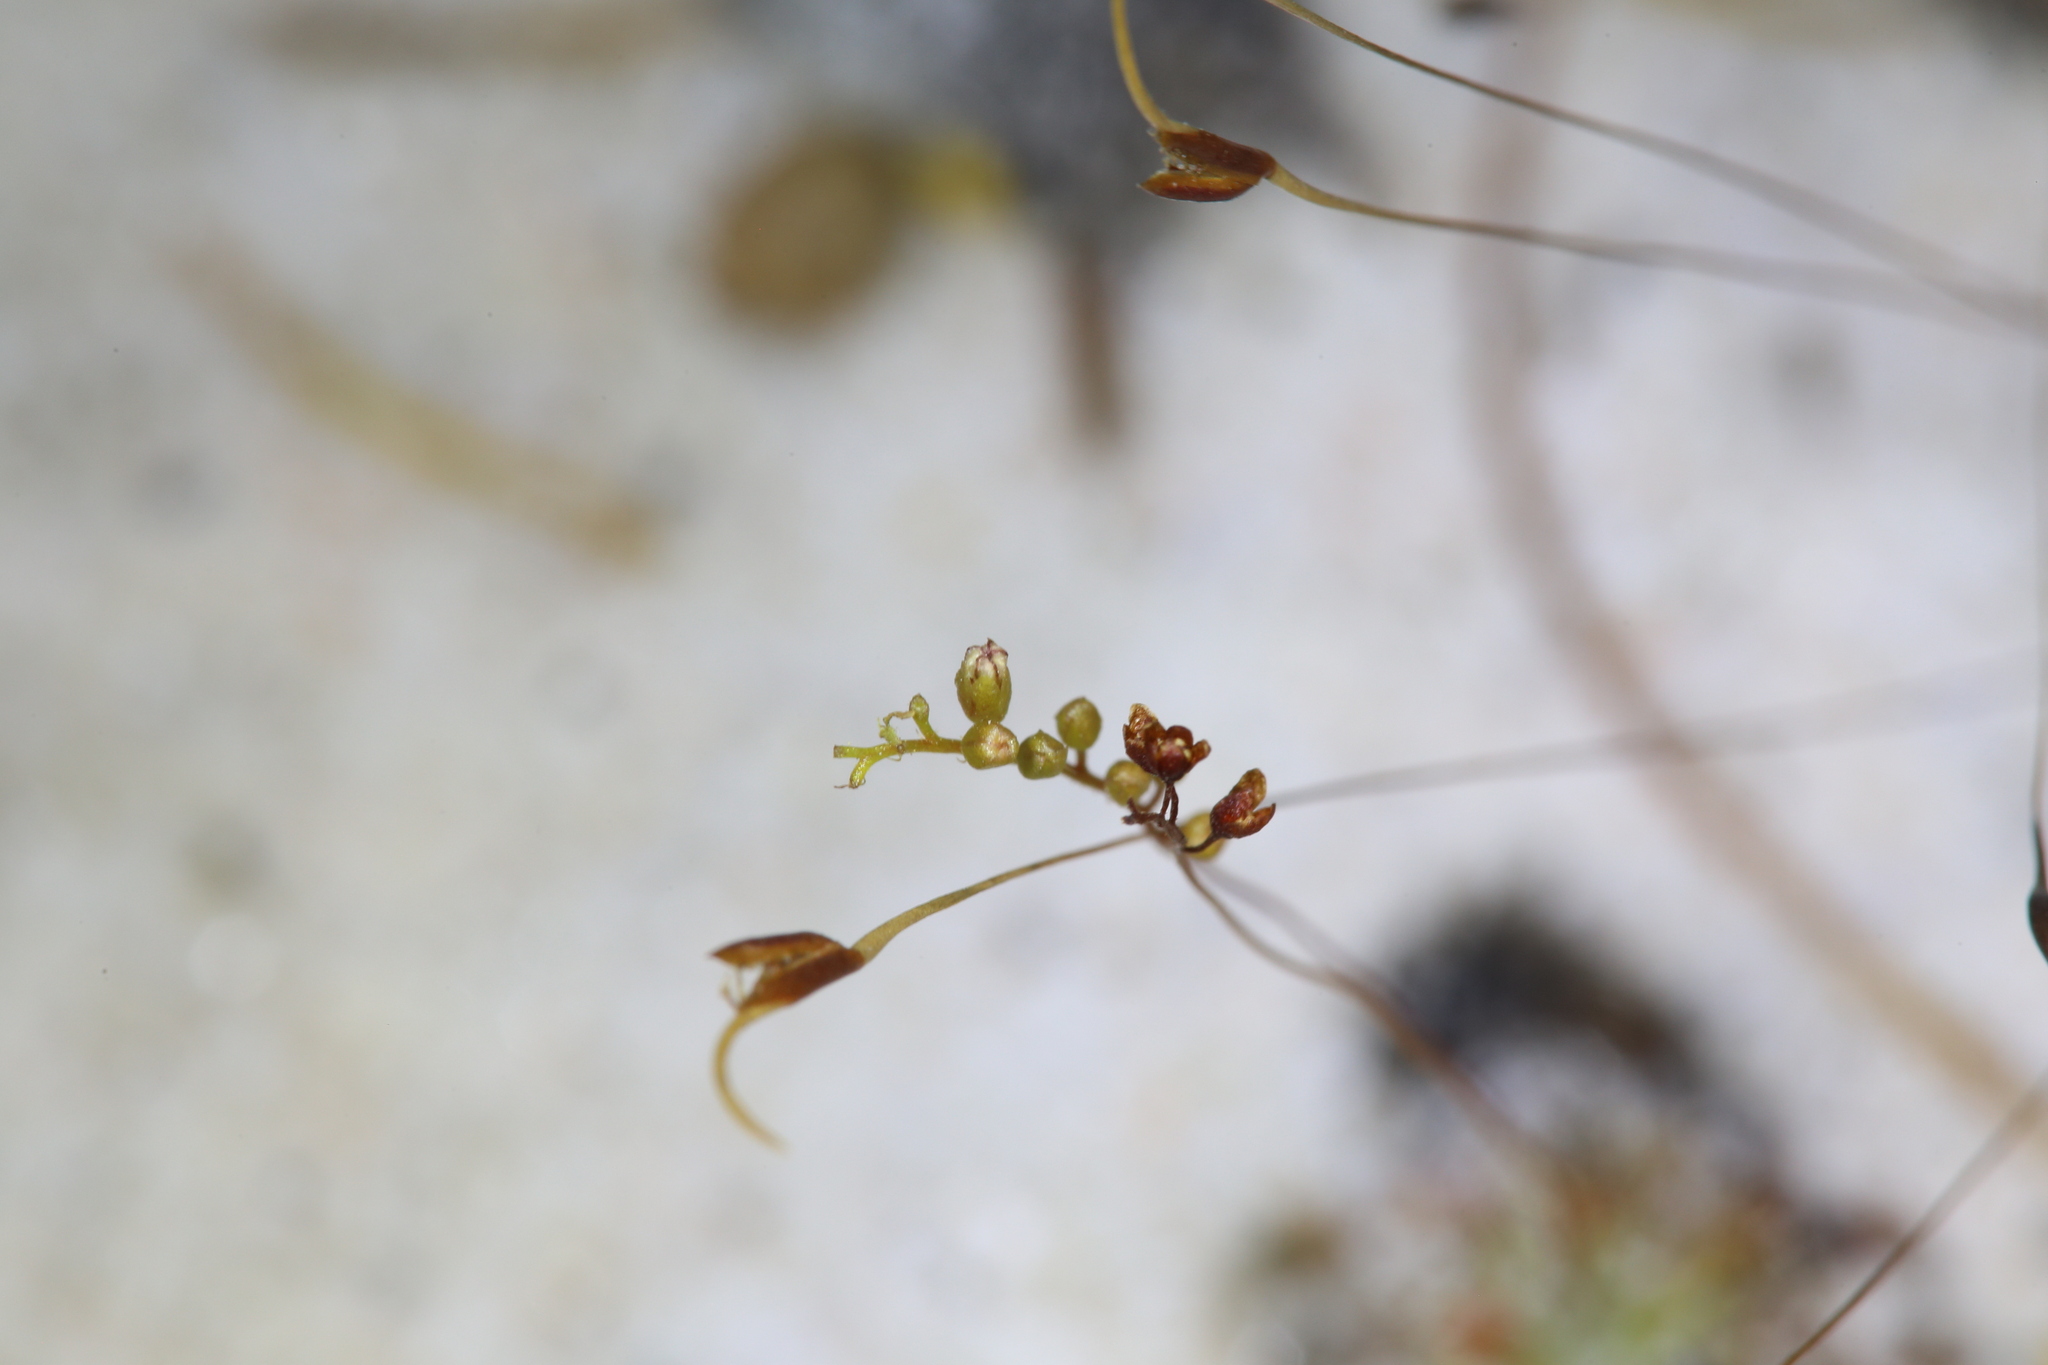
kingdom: Plantae
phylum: Tracheophyta
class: Magnoliopsida
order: Caryophyllales
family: Droseraceae
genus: Drosera
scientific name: Drosera paleacea
